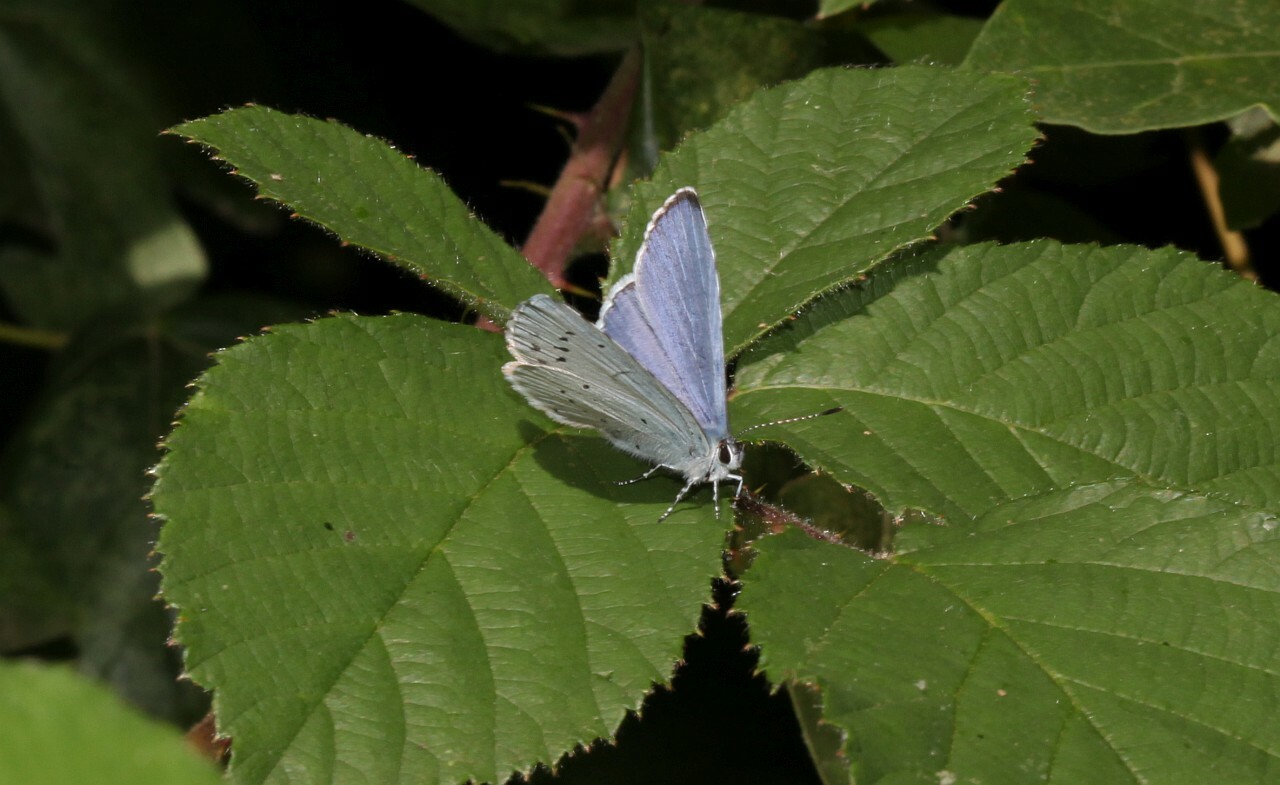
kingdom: Animalia
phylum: Arthropoda
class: Insecta
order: Lepidoptera
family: Lycaenidae
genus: Celastrina
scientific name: Celastrina argiolus
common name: Holly blue
